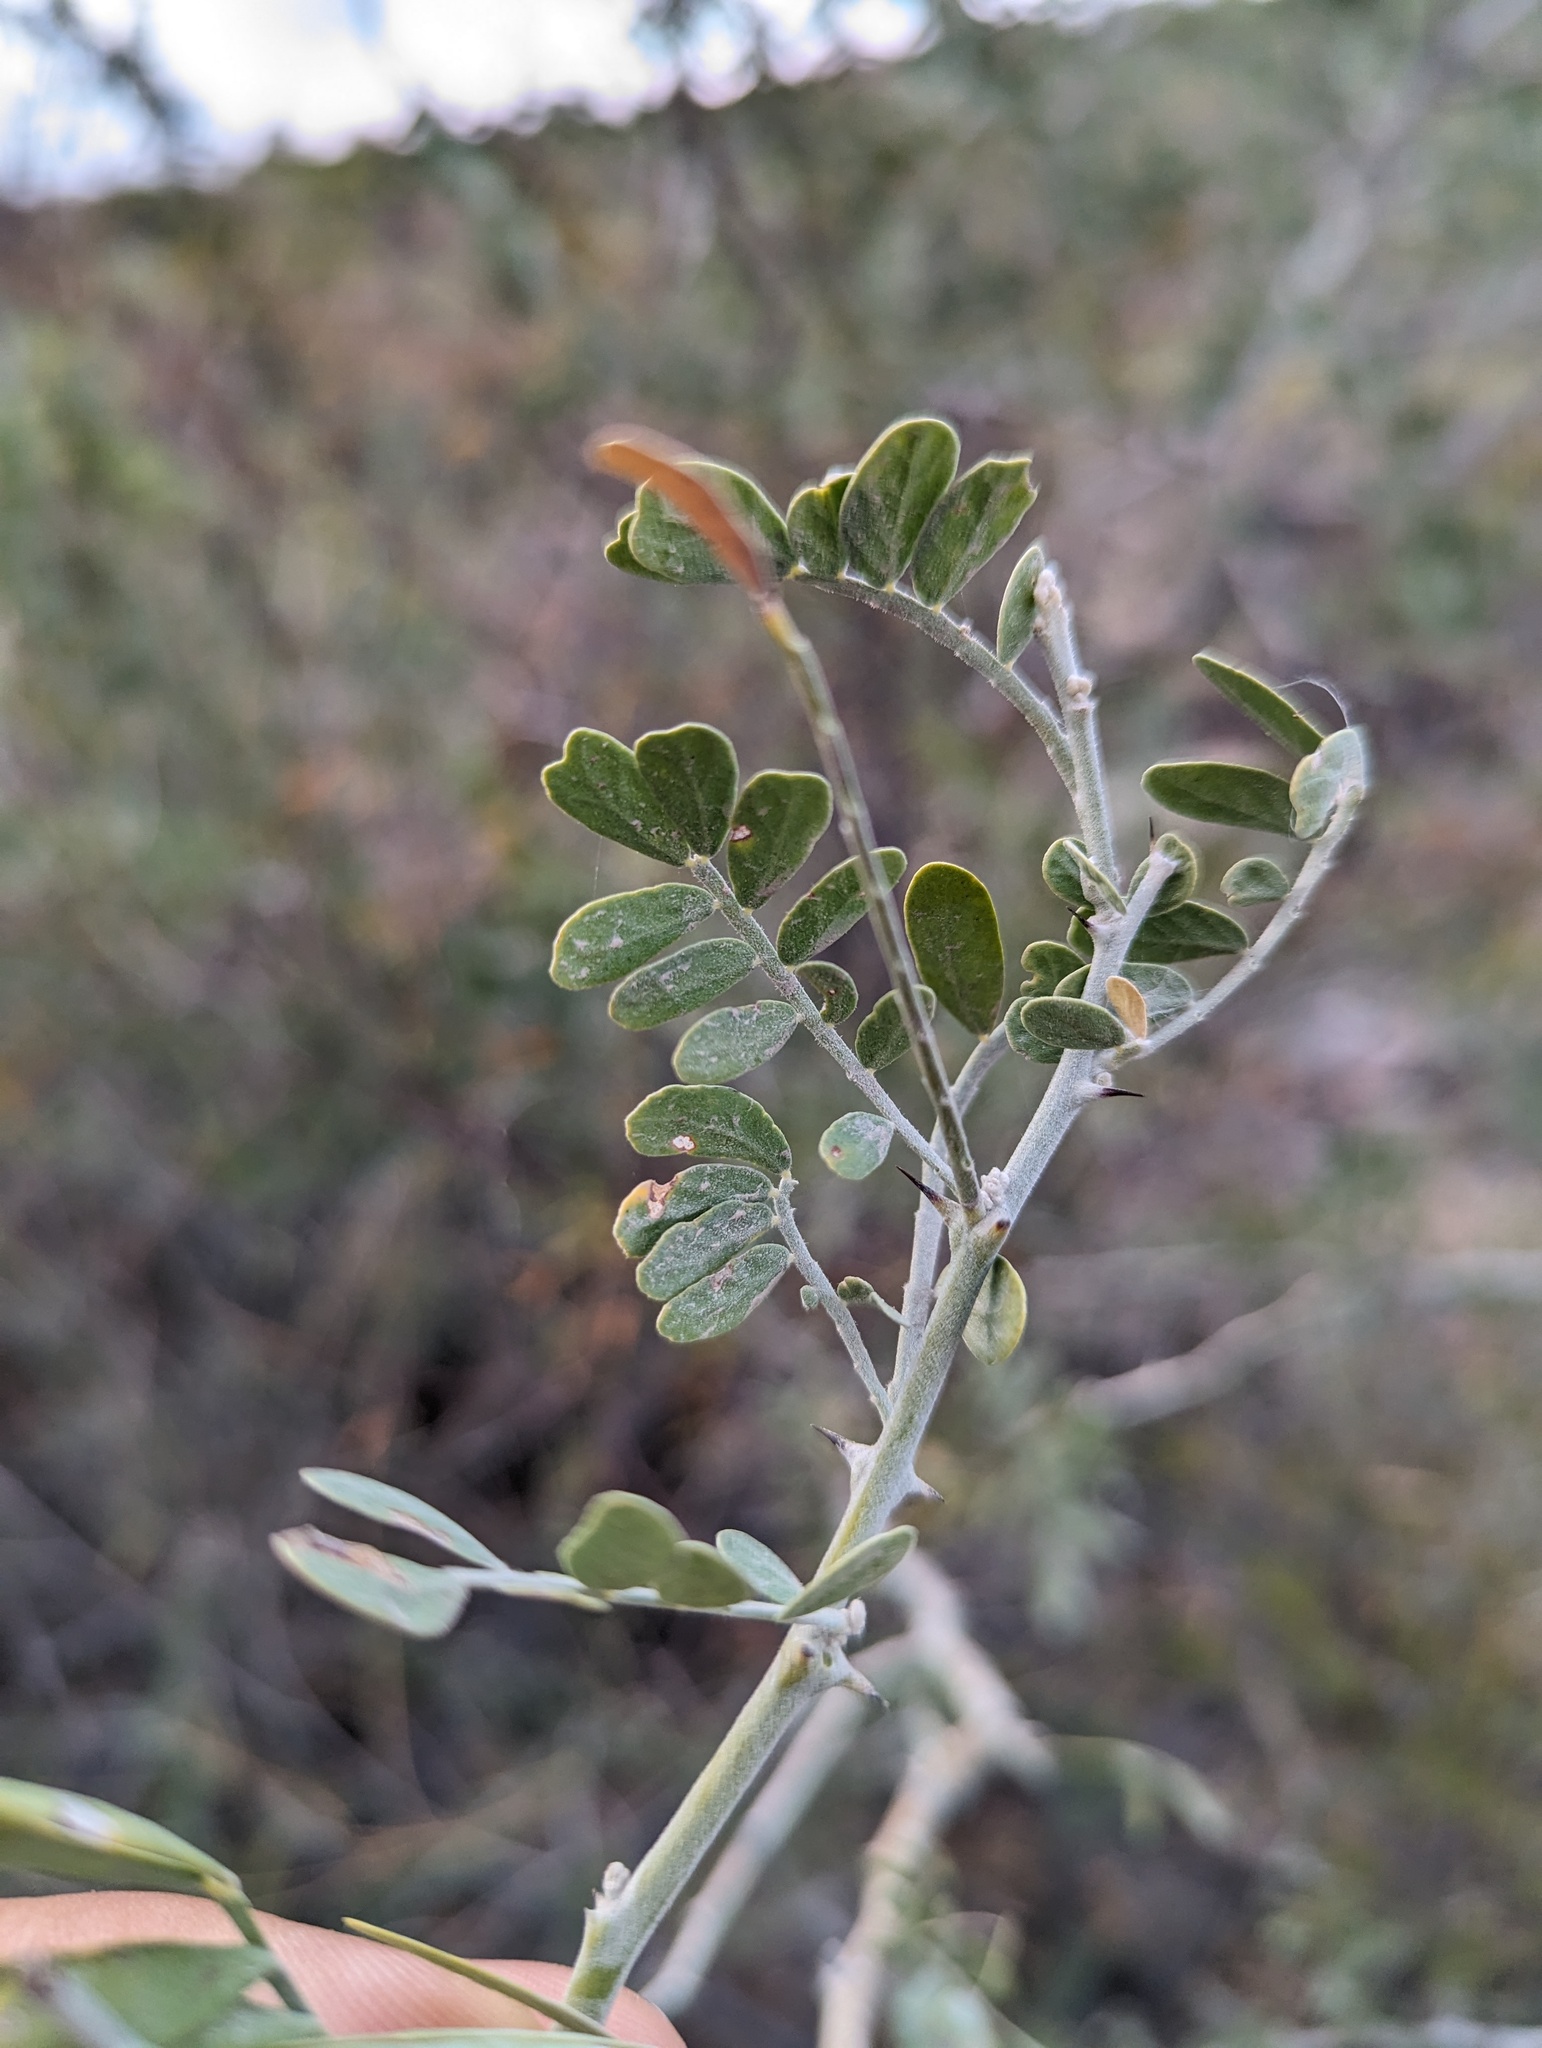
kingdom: Plantae
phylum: Tracheophyta
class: Magnoliopsida
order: Fabales
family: Fabaceae
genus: Olneya
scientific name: Olneya tesota
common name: Desert ironwood
